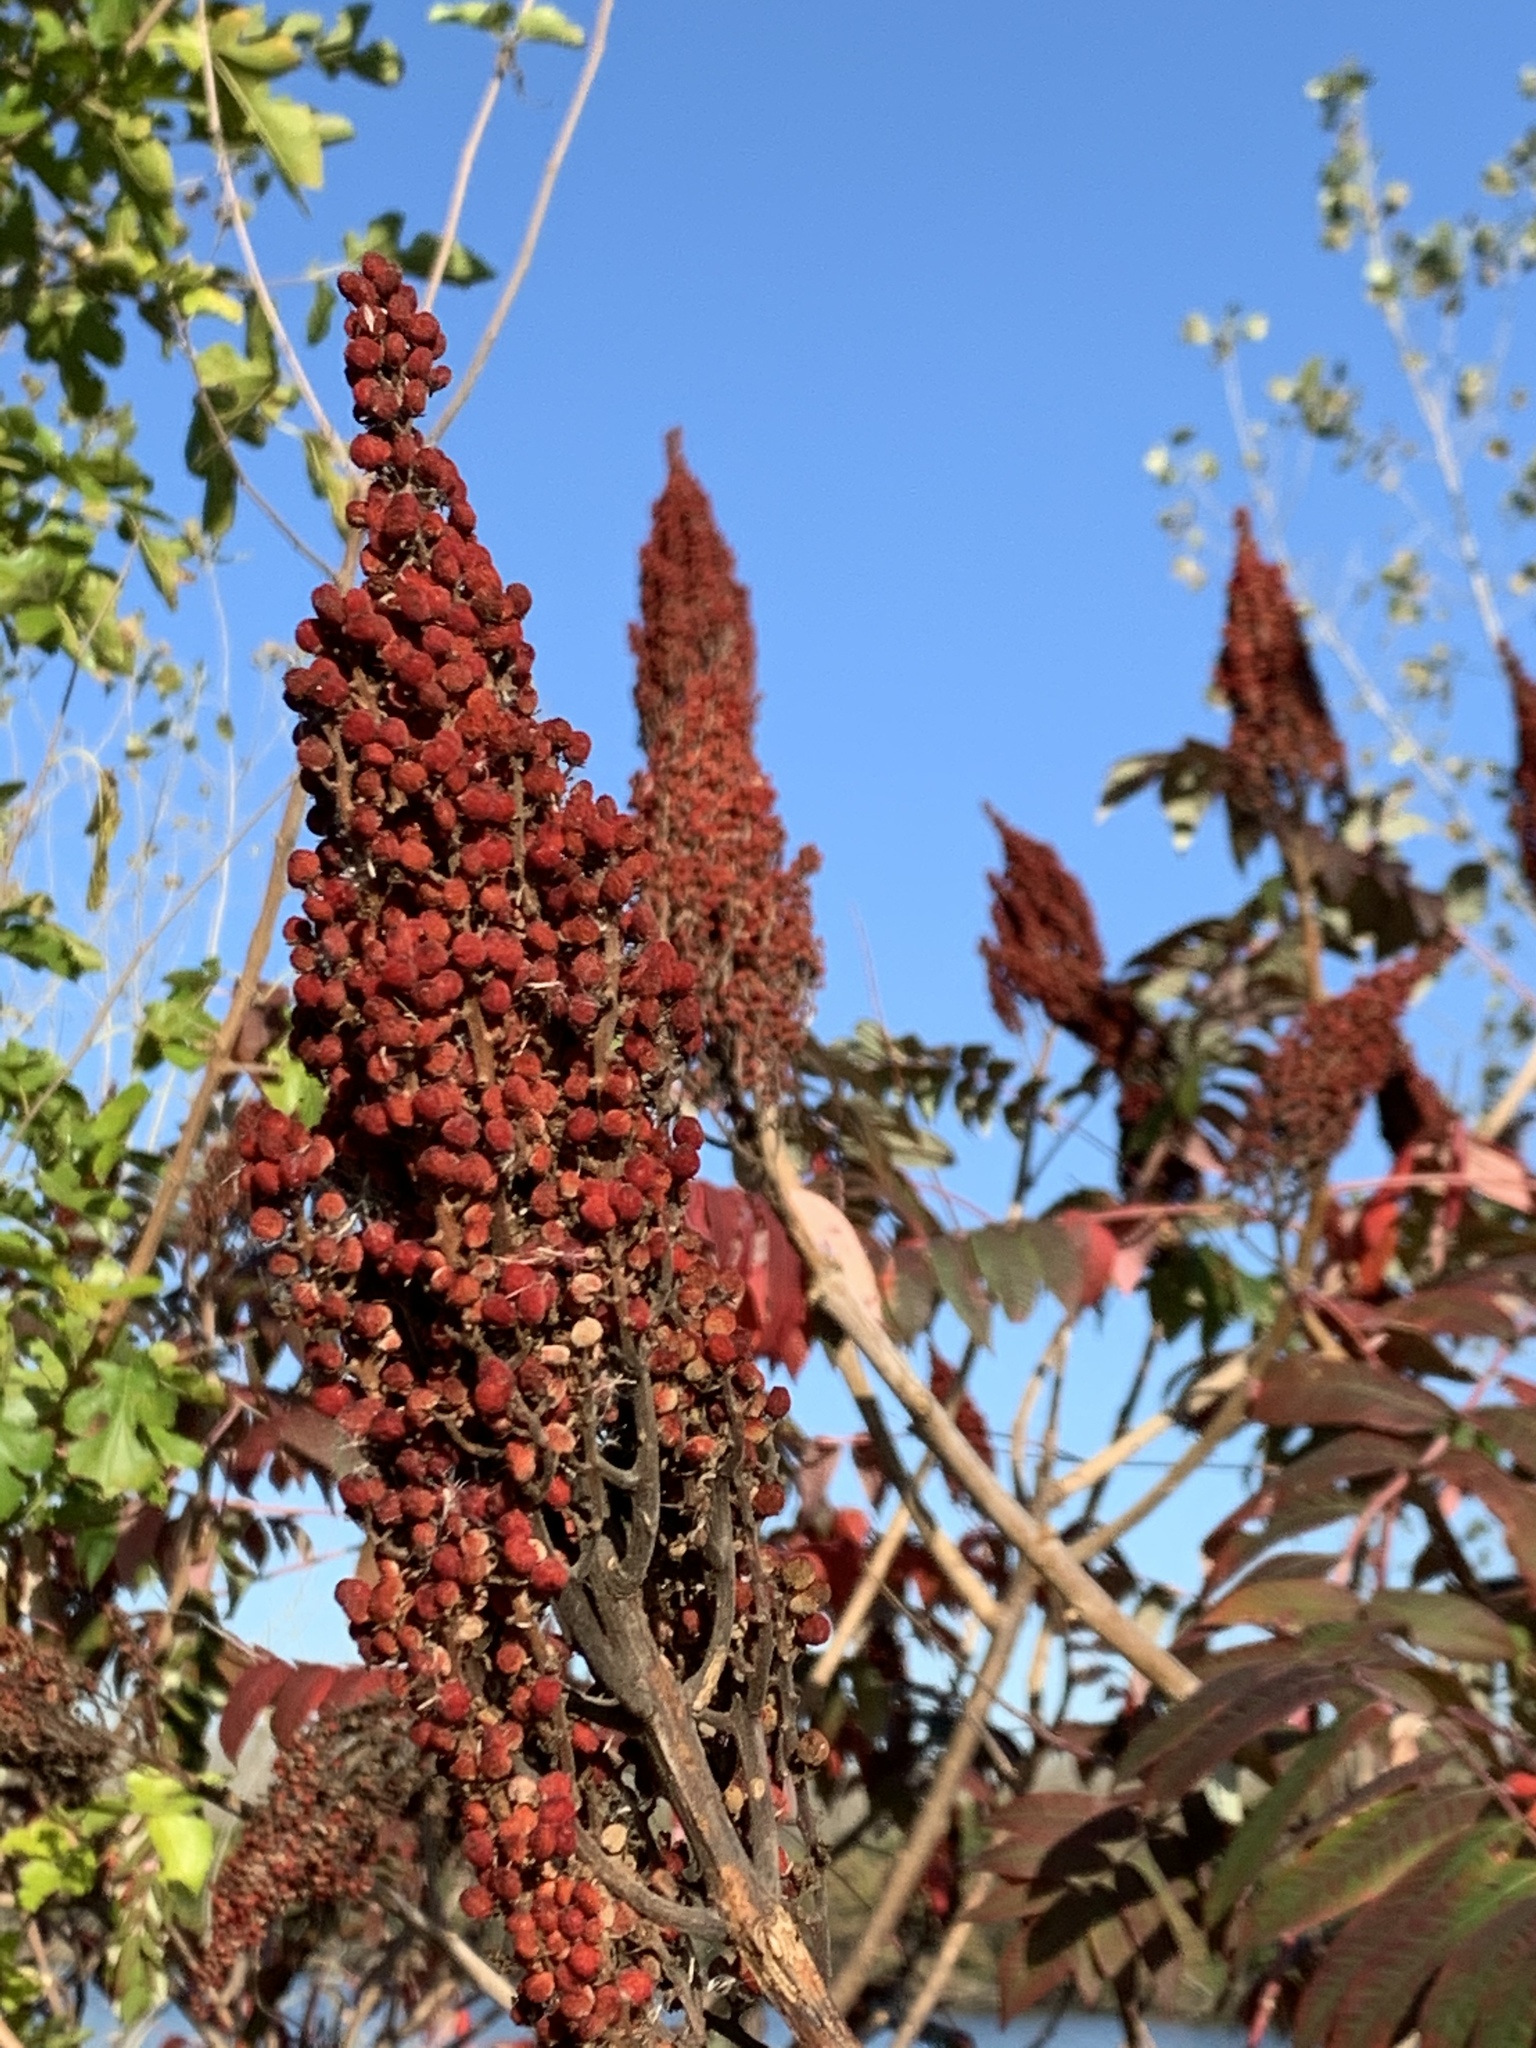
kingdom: Plantae
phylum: Tracheophyta
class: Magnoliopsida
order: Sapindales
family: Anacardiaceae
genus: Rhus
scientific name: Rhus glabra
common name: Scarlet sumac
